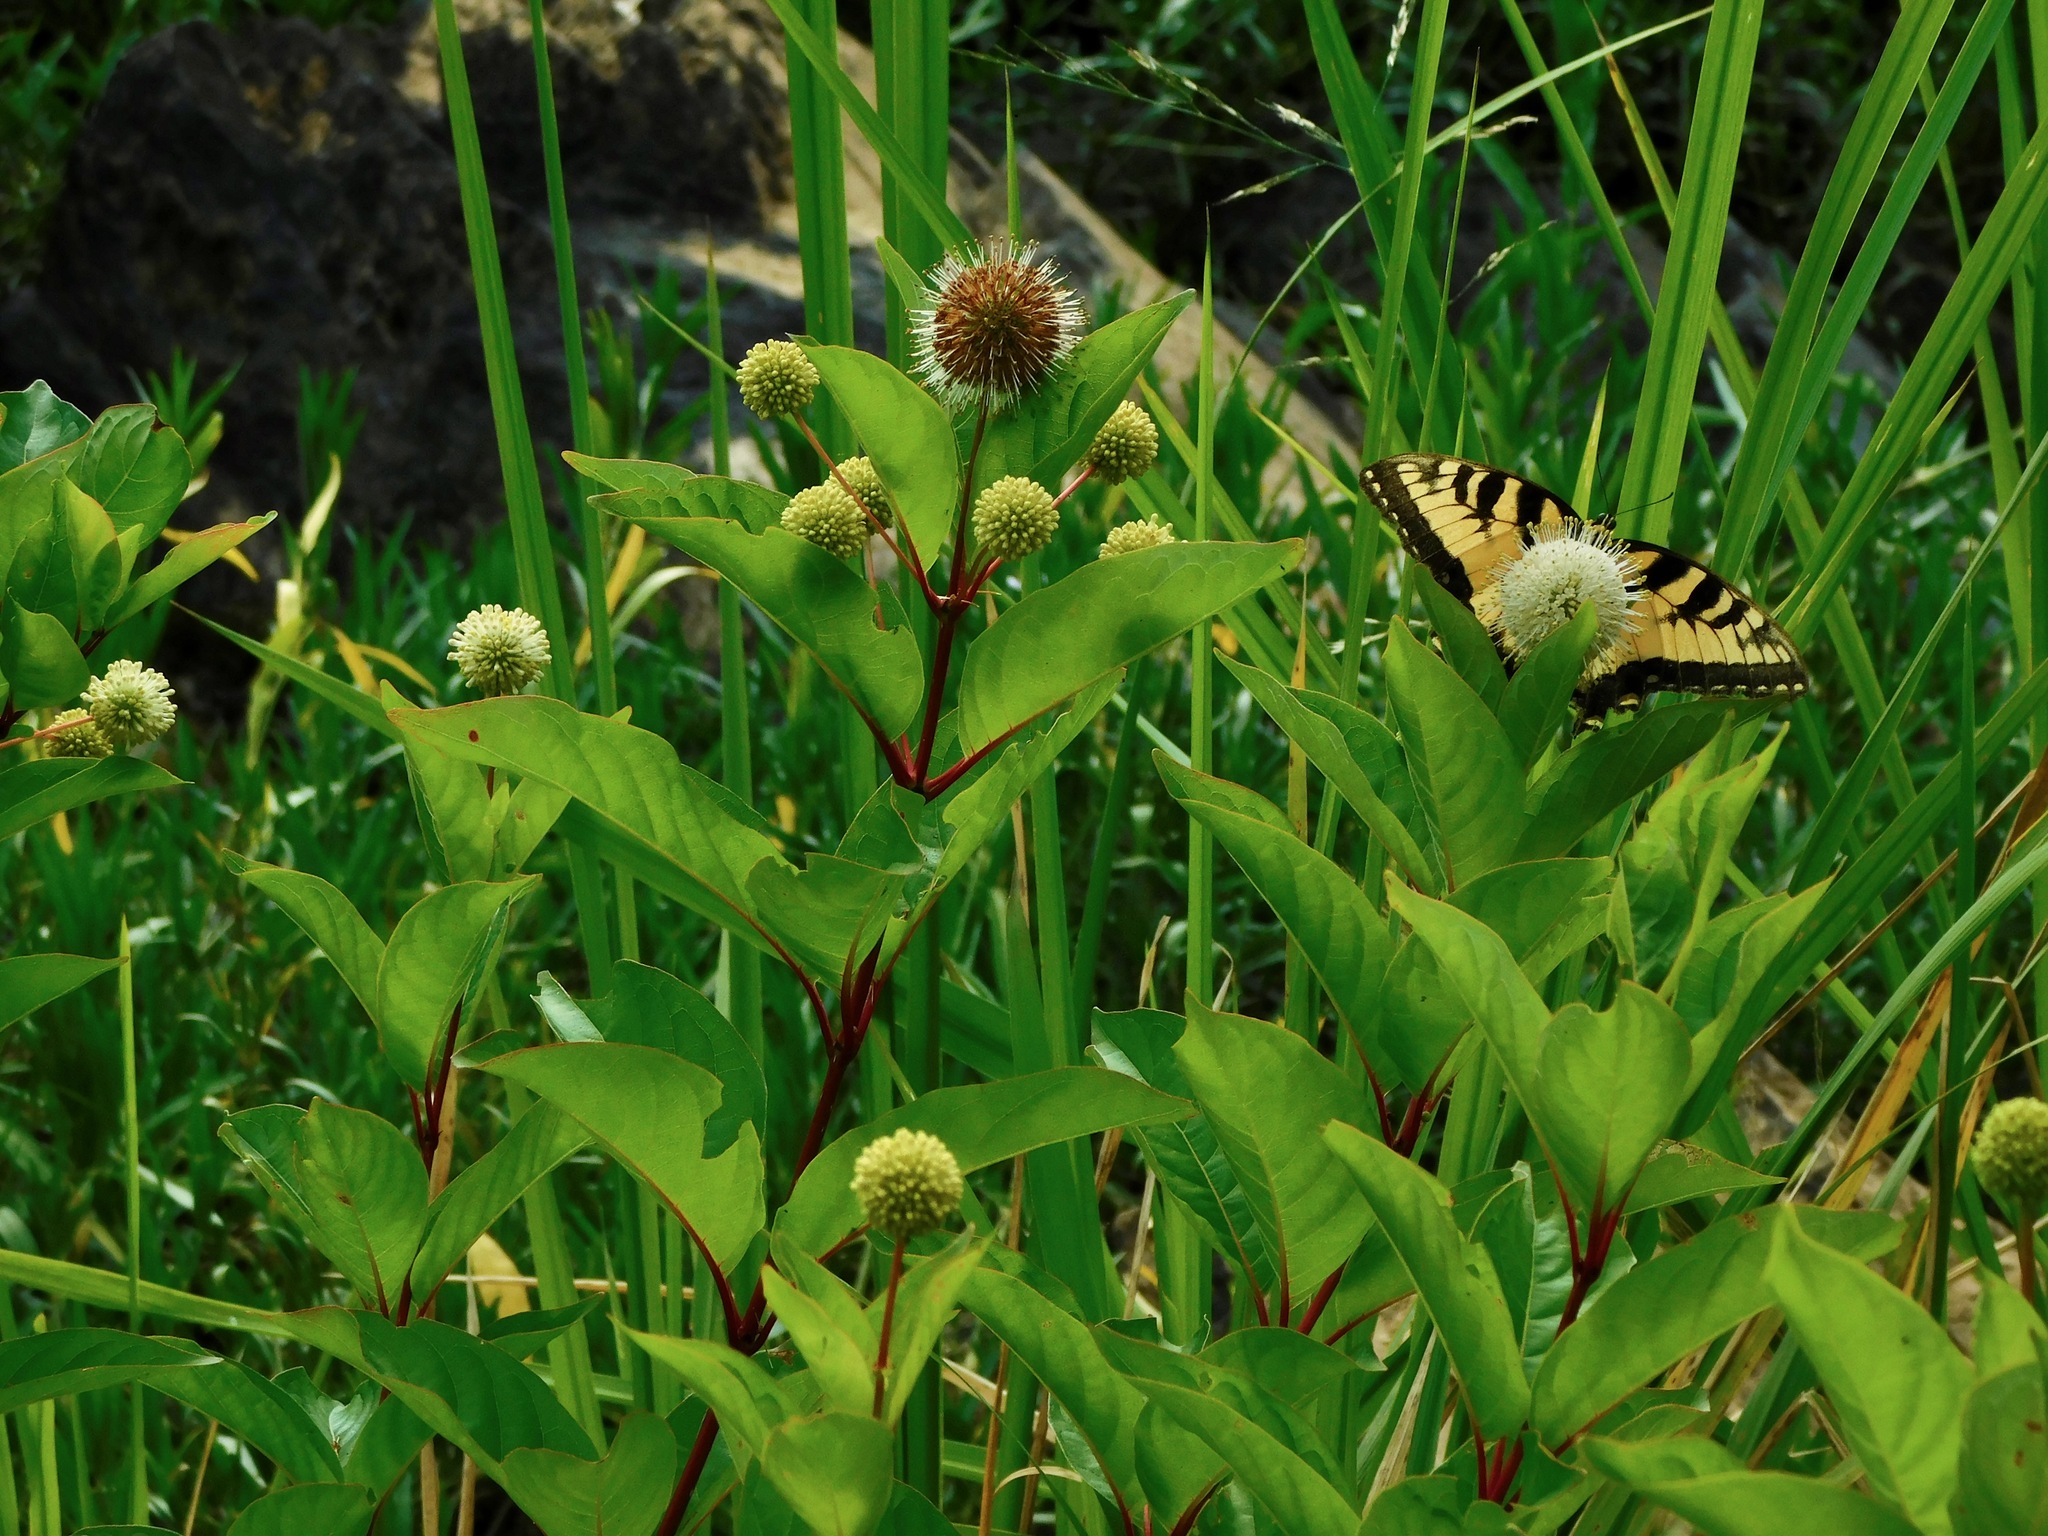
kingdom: Plantae
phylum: Tracheophyta
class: Magnoliopsida
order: Gentianales
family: Rubiaceae
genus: Cephalanthus
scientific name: Cephalanthus occidentalis
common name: Button-willow
